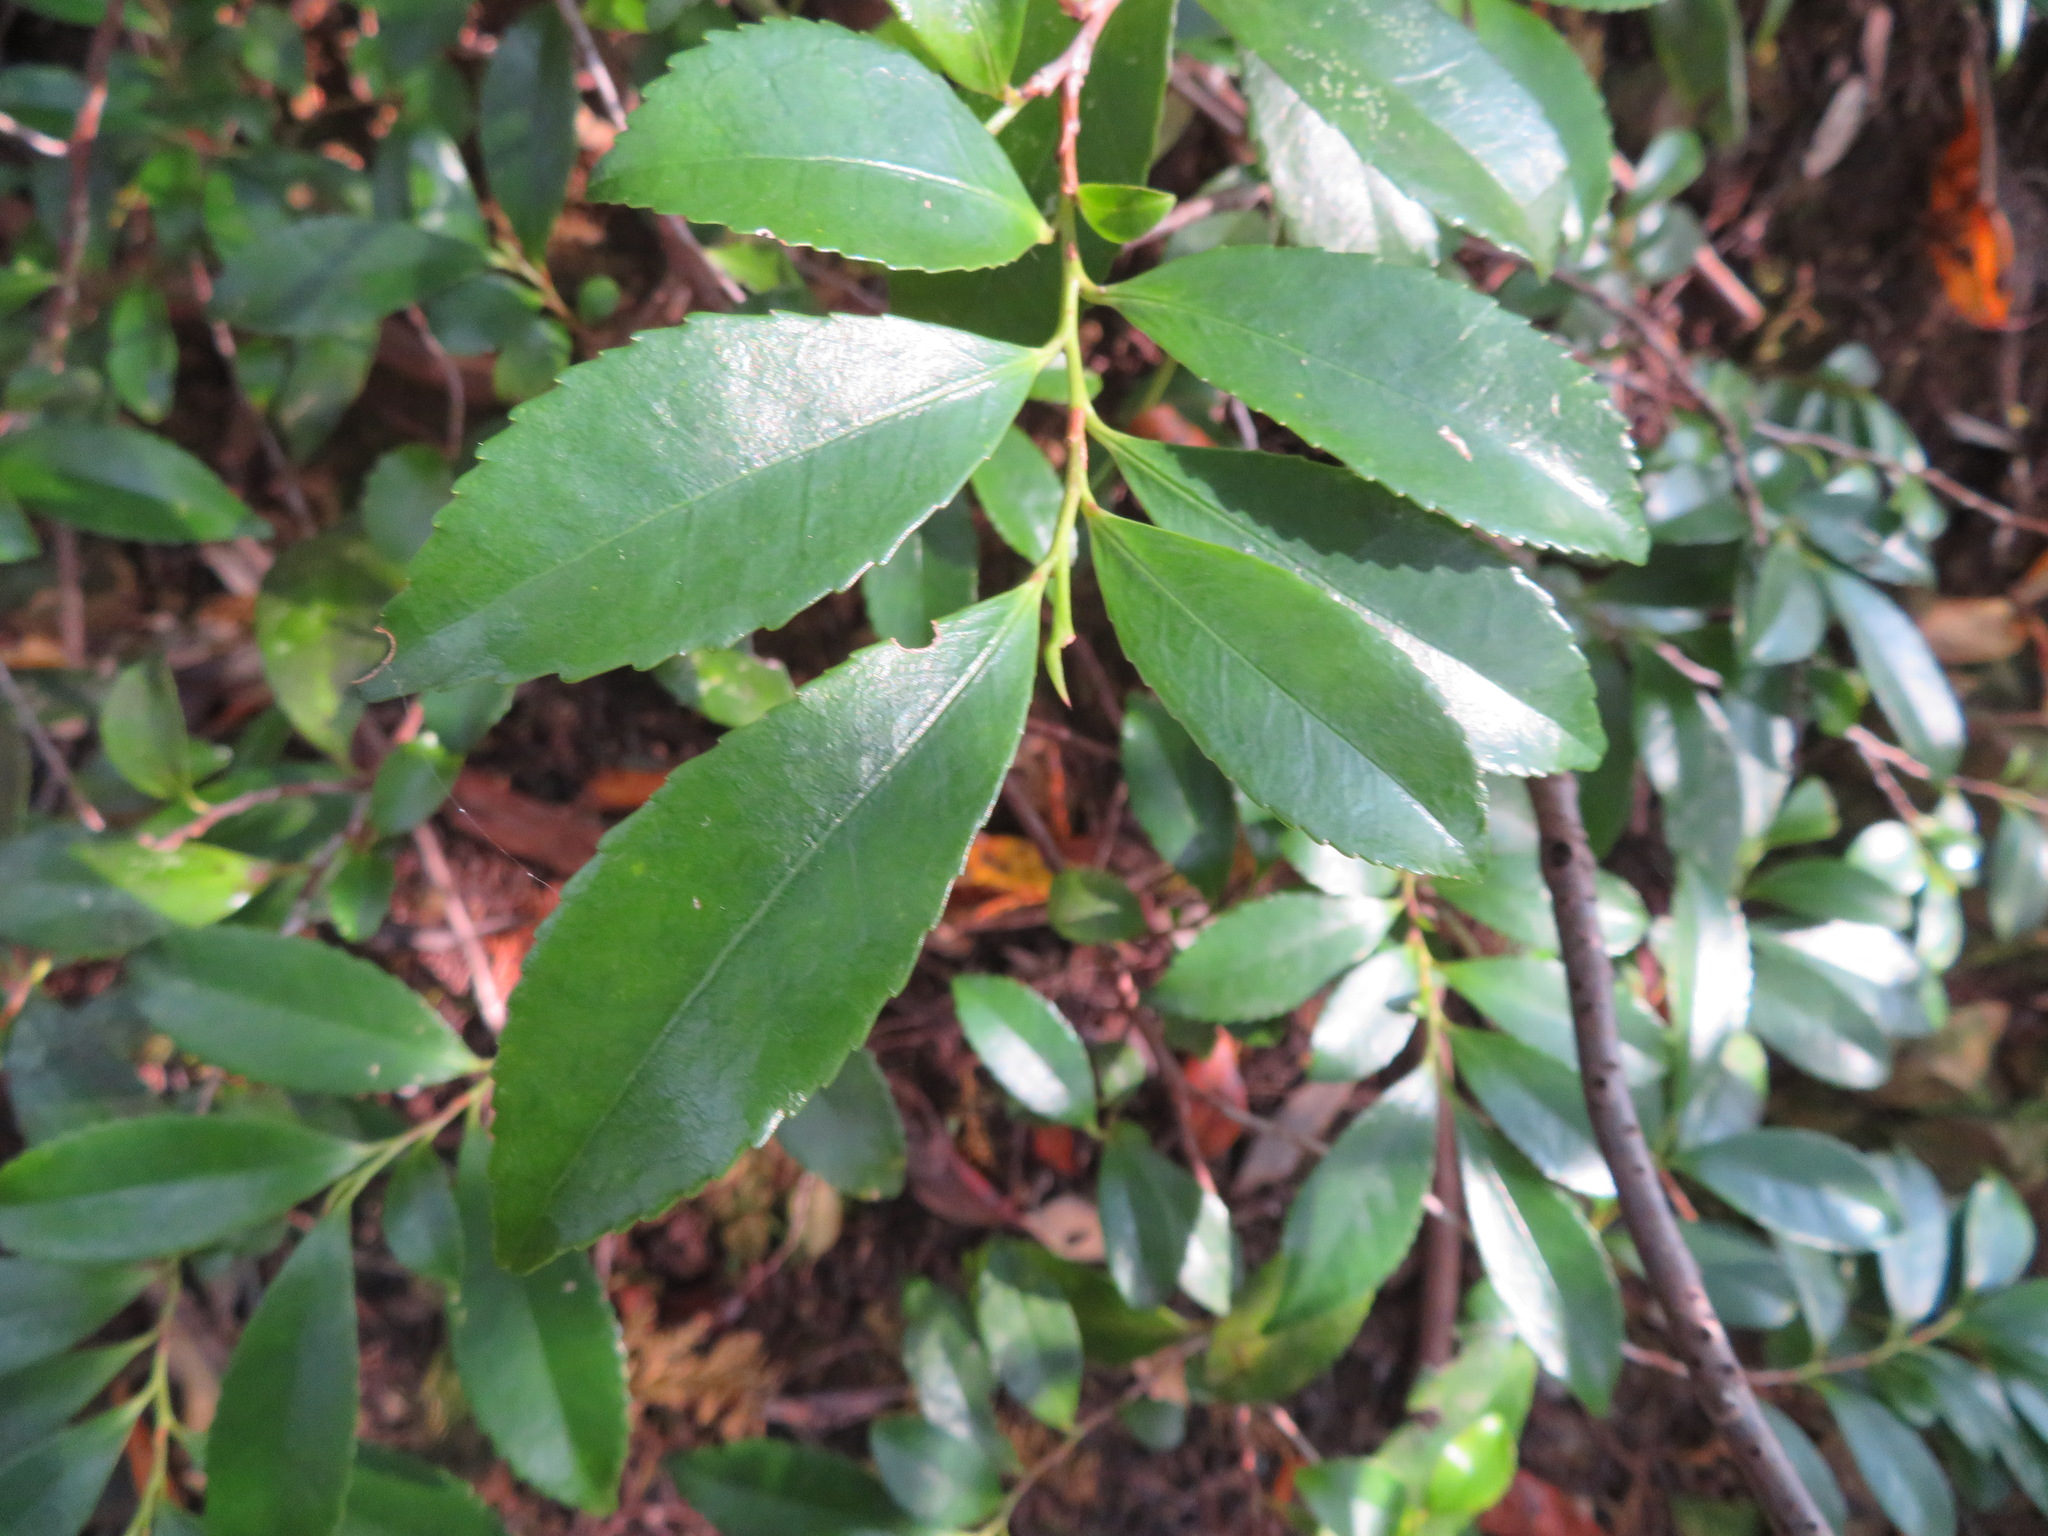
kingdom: Plantae
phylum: Tracheophyta
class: Magnoliopsida
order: Ericales
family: Pentaphylacaceae
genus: Eurya
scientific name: Eurya japonica
